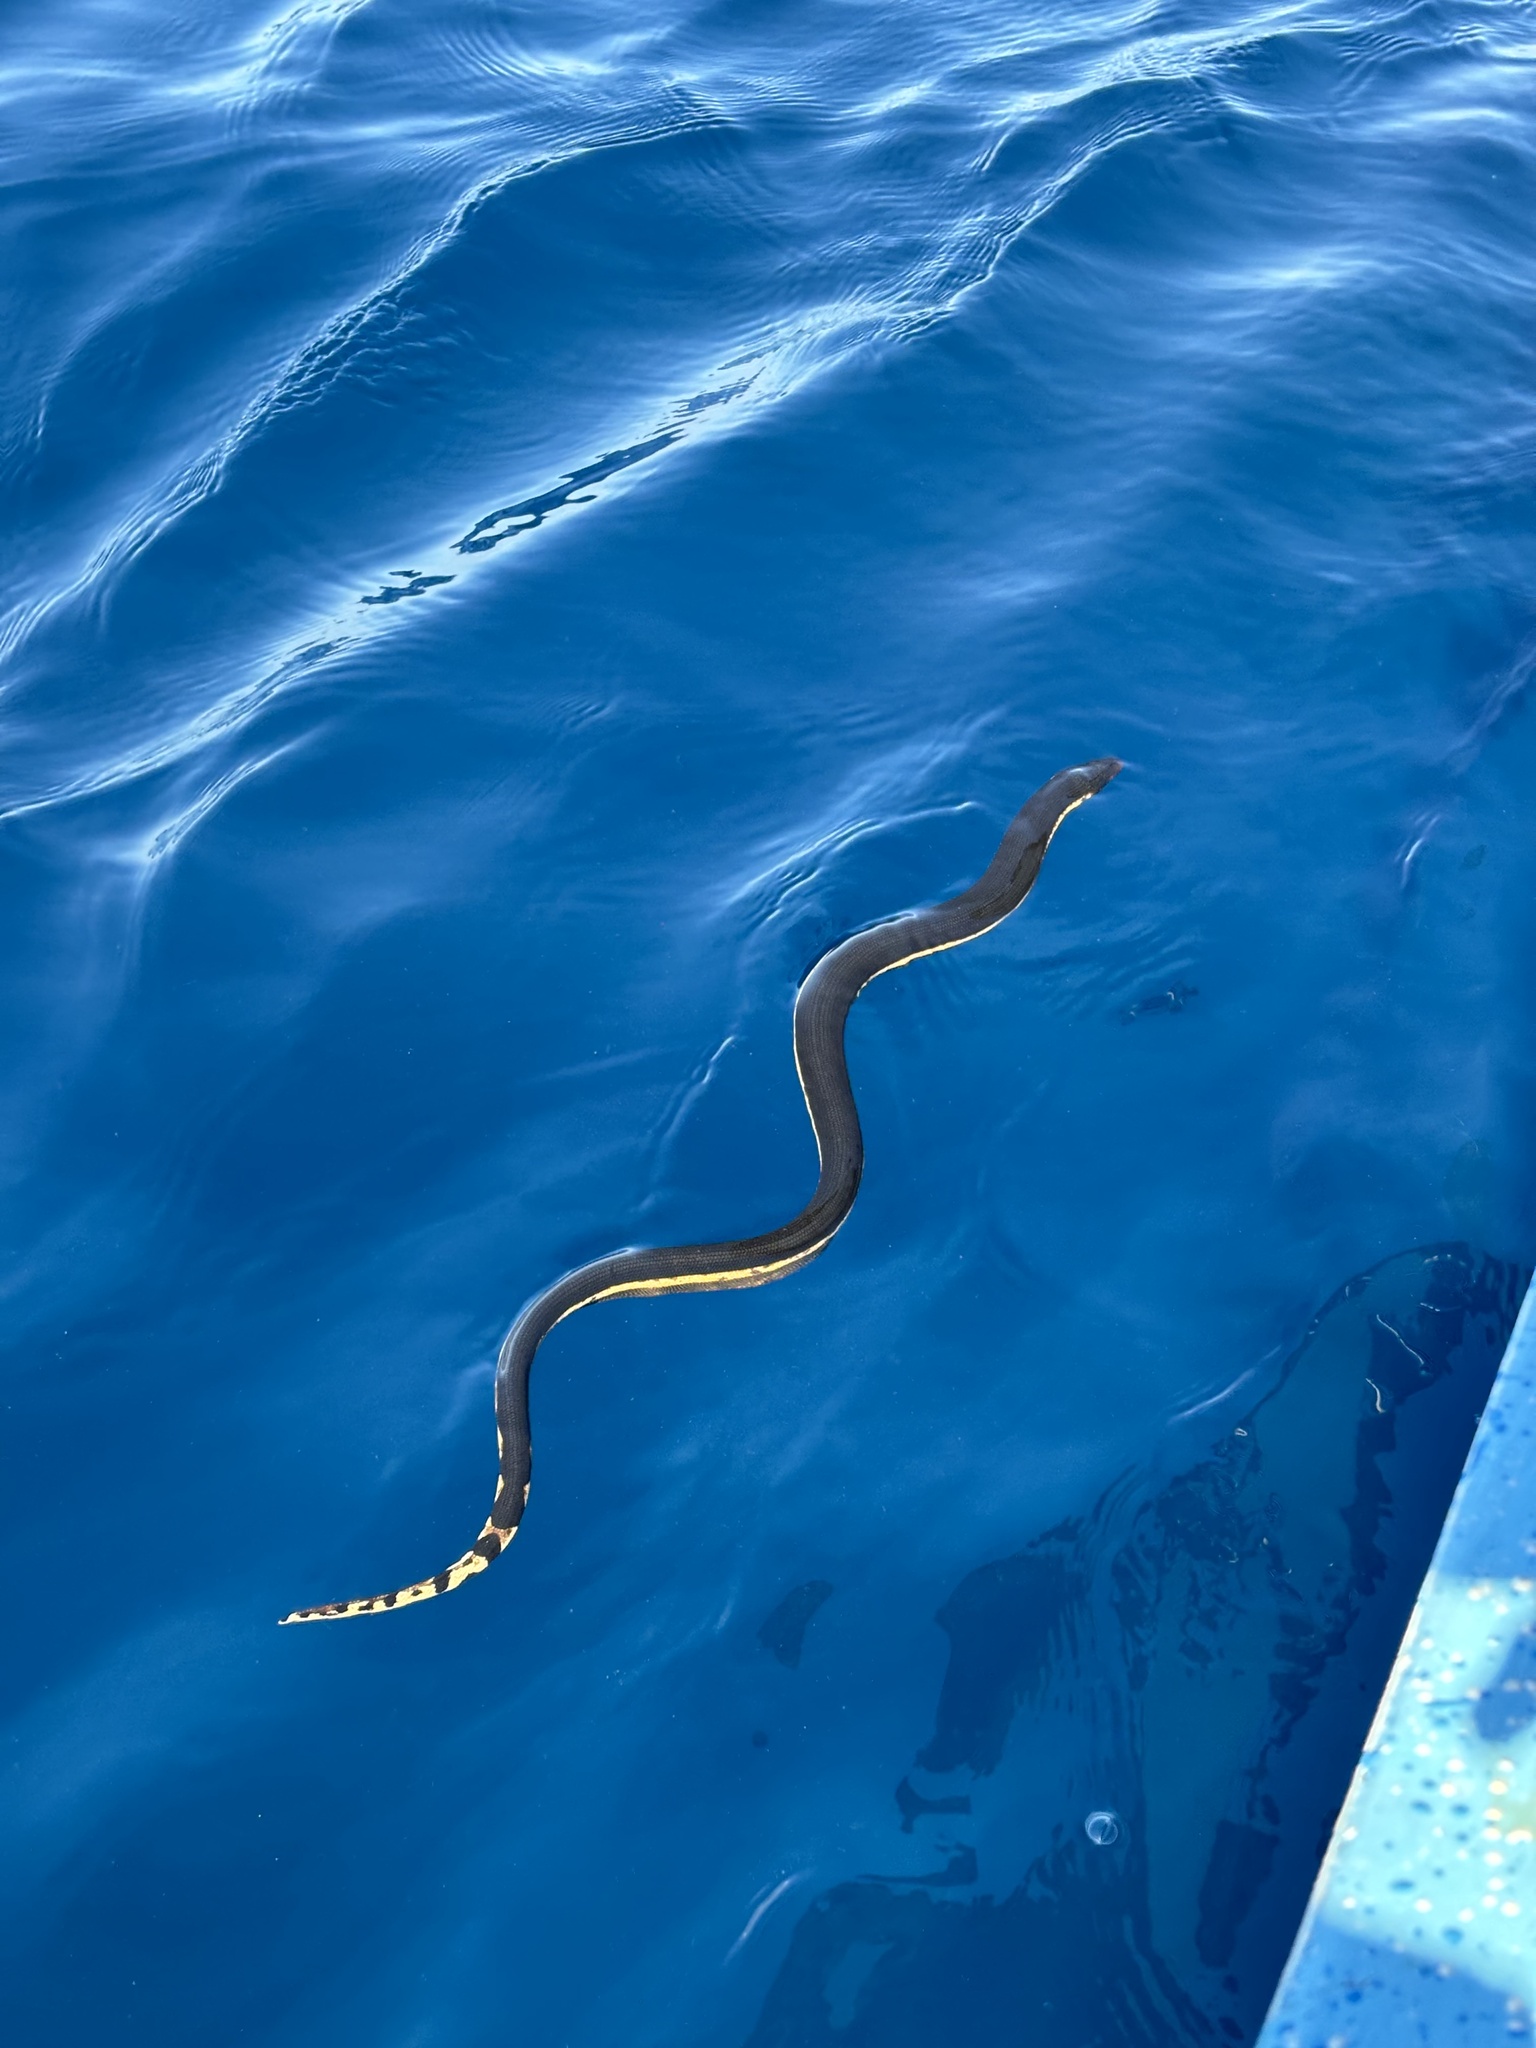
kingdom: Animalia
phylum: Chordata
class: Squamata
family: Elapidae
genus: Hydrophis
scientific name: Hydrophis platurus
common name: Pelagic sea snake
